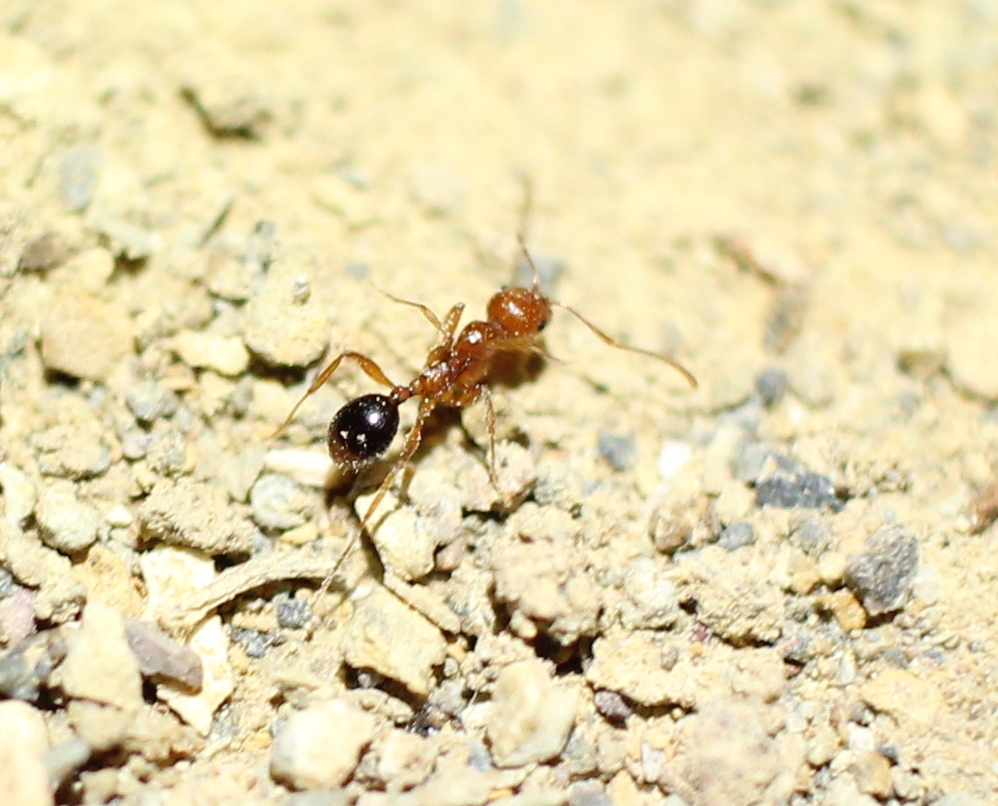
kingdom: Animalia
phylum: Arthropoda
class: Insecta
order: Hymenoptera
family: Formicidae
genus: Aphaenogaster
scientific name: Aphaenogaster uinta
